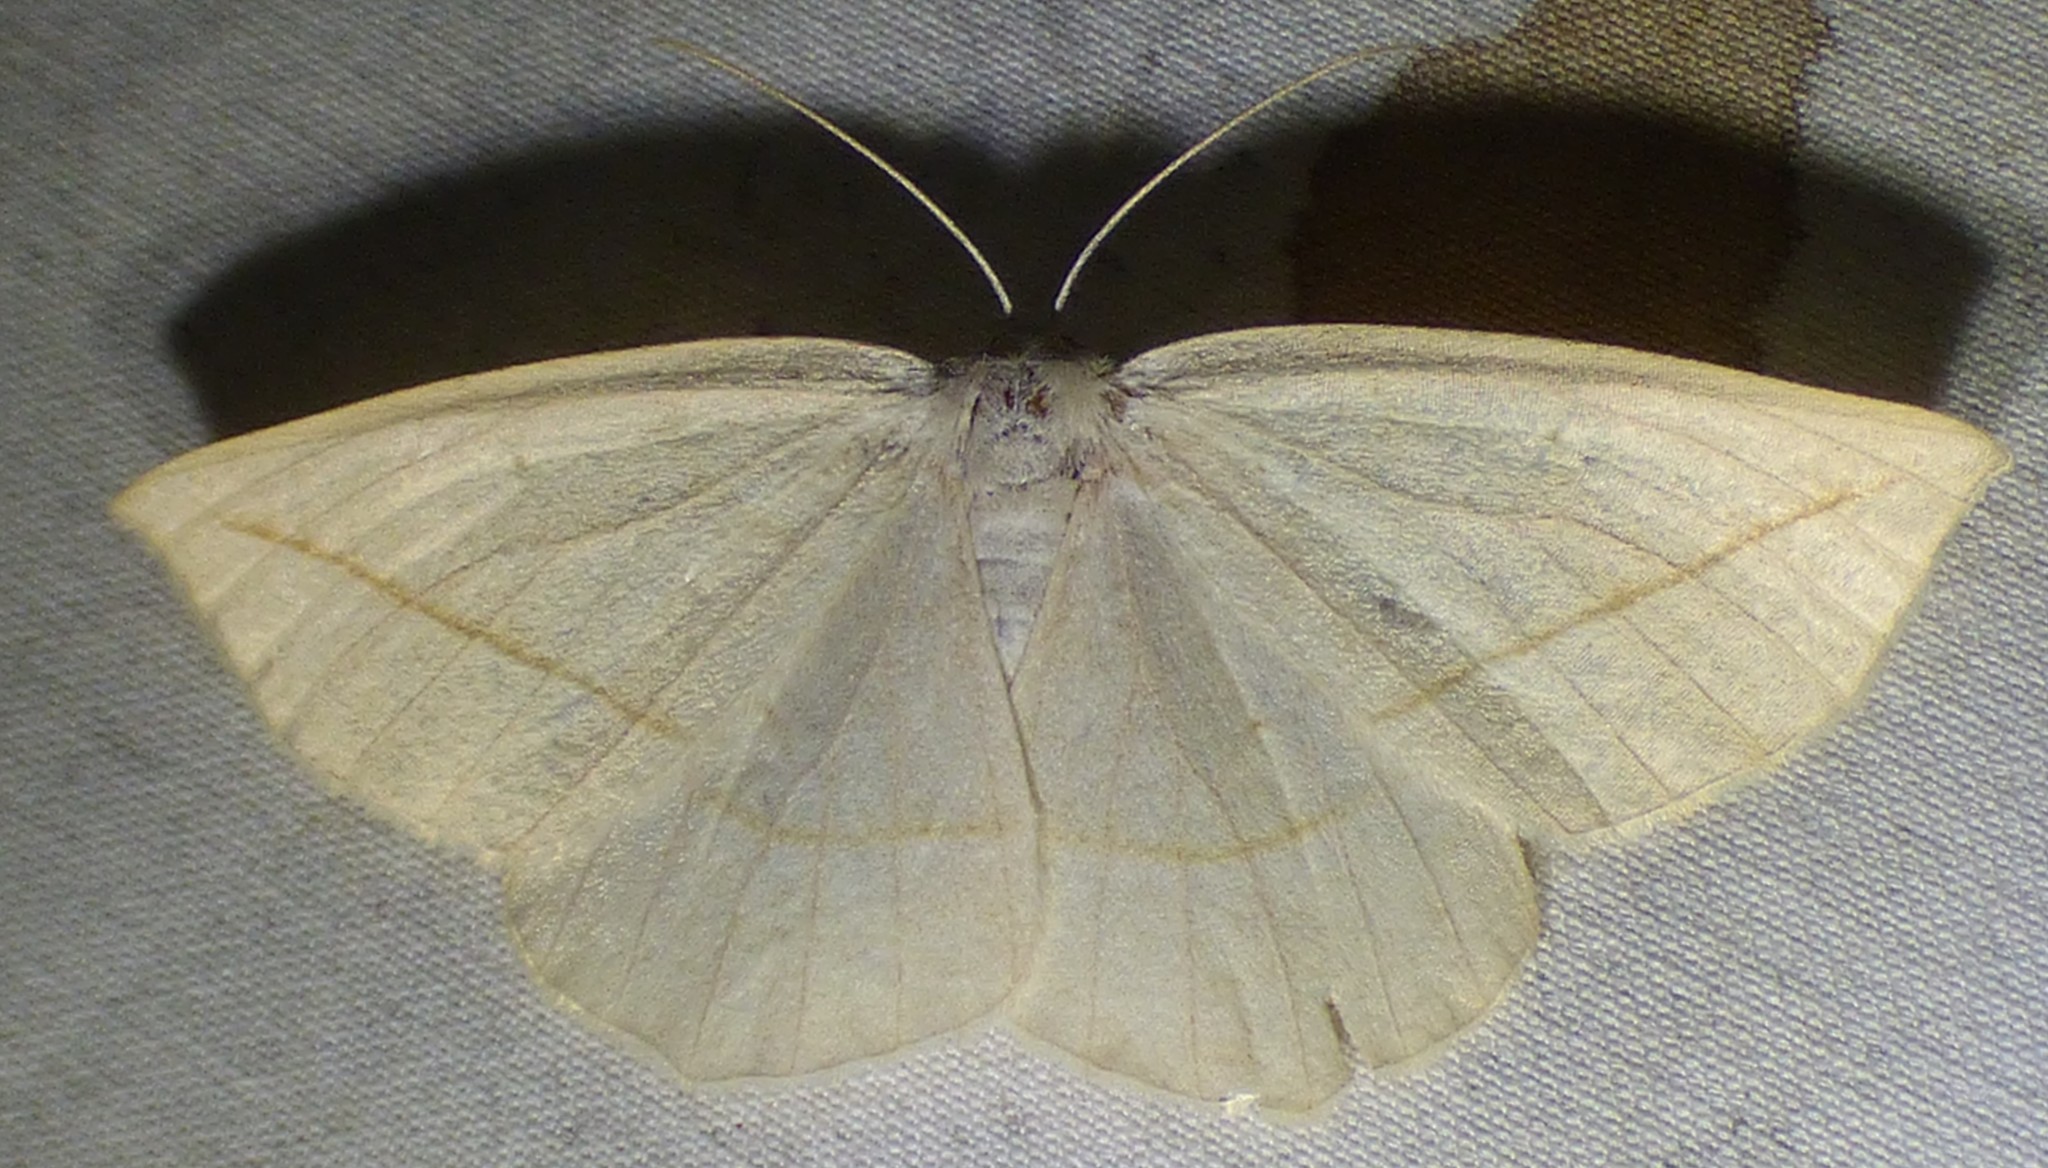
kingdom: Animalia
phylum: Arthropoda
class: Insecta
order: Lepidoptera
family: Geometridae
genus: Eusarca
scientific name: Eusarca confusaria
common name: Confused eusarca
